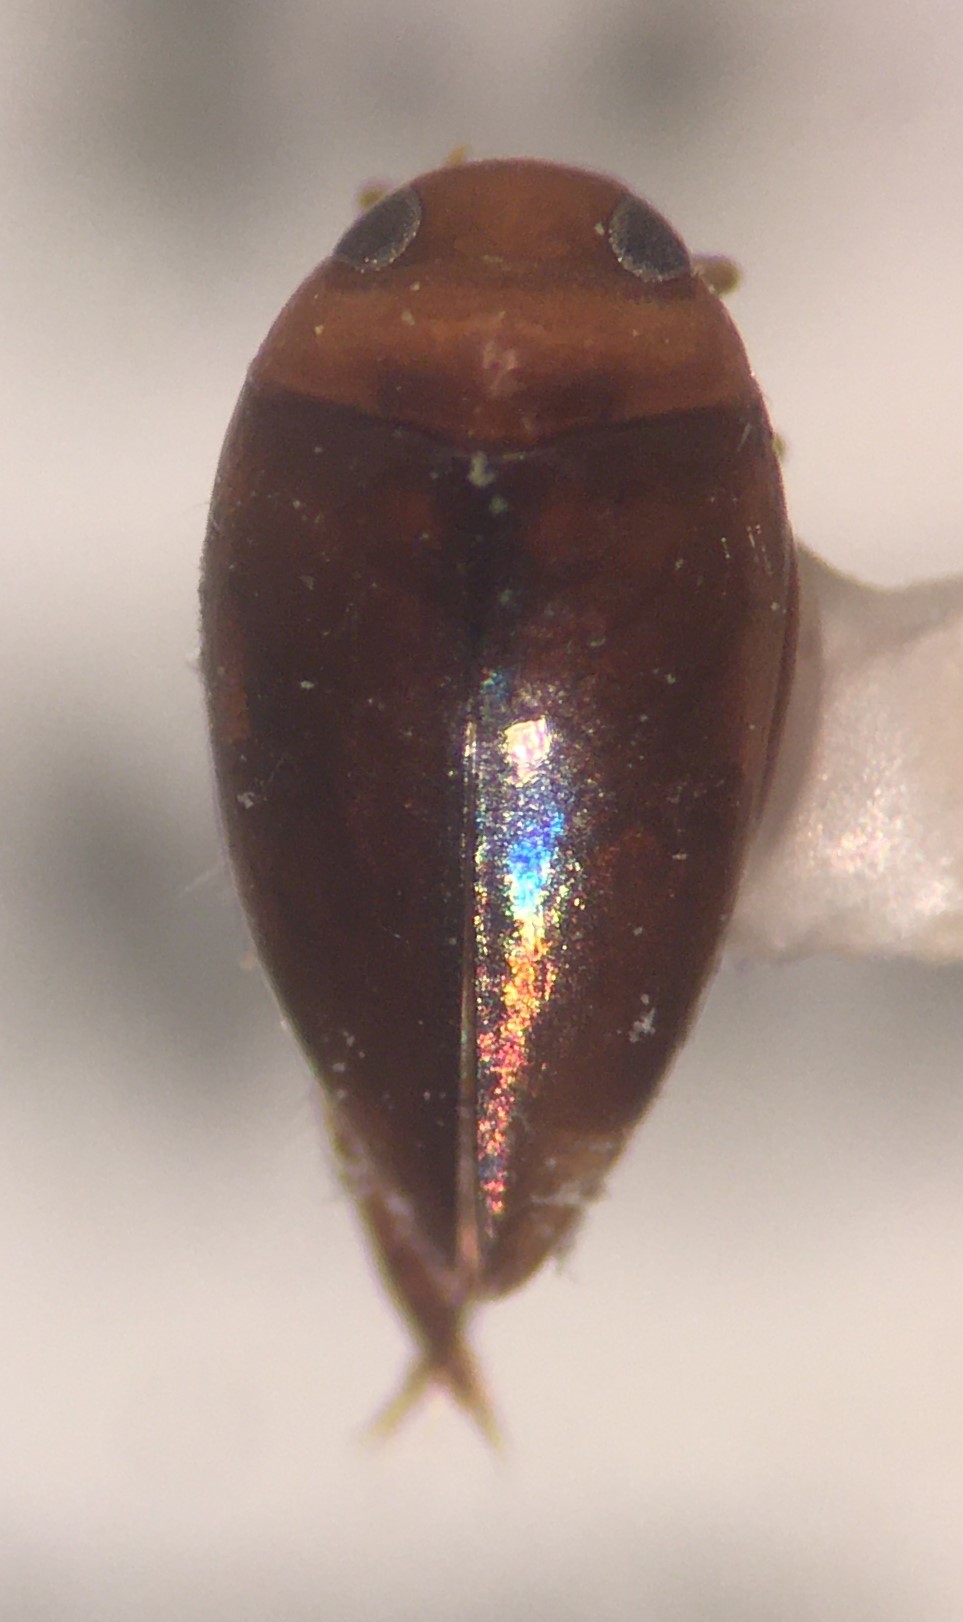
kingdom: Animalia
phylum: Arthropoda
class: Insecta
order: Coleoptera
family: Dytiscidae
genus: Laccomimus
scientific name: Laccomimus pumilio
